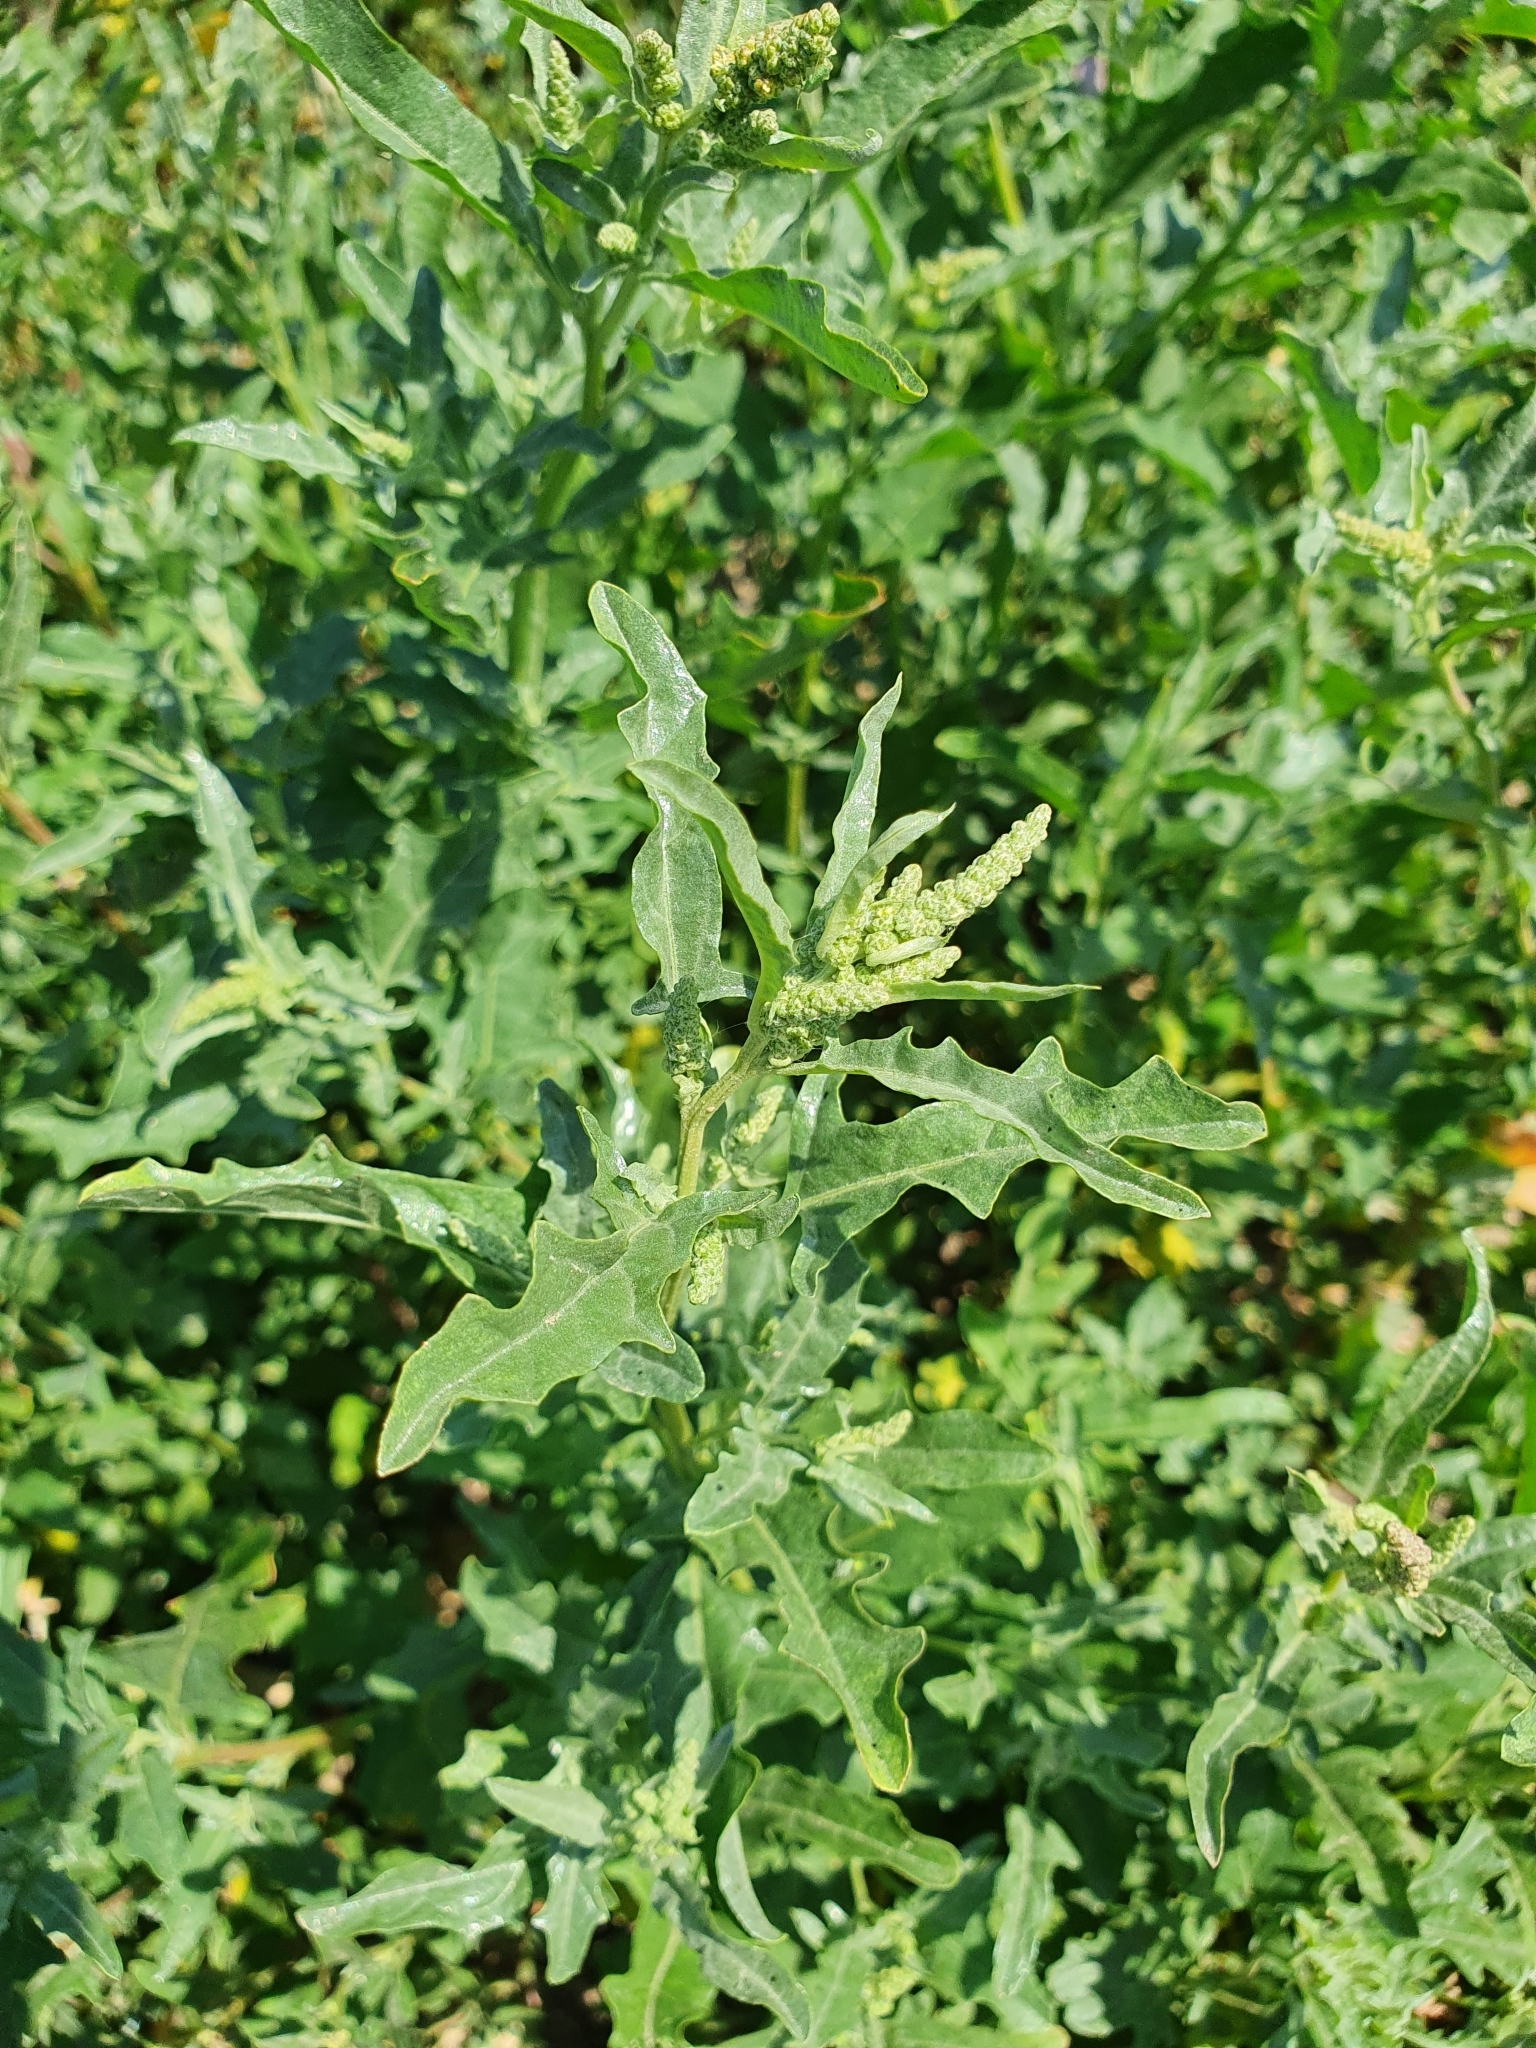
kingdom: Plantae
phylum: Tracheophyta
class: Magnoliopsida
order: Caryophyllales
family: Amaranthaceae
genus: Atriplex
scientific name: Atriplex tatarica
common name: Tatarian orache
